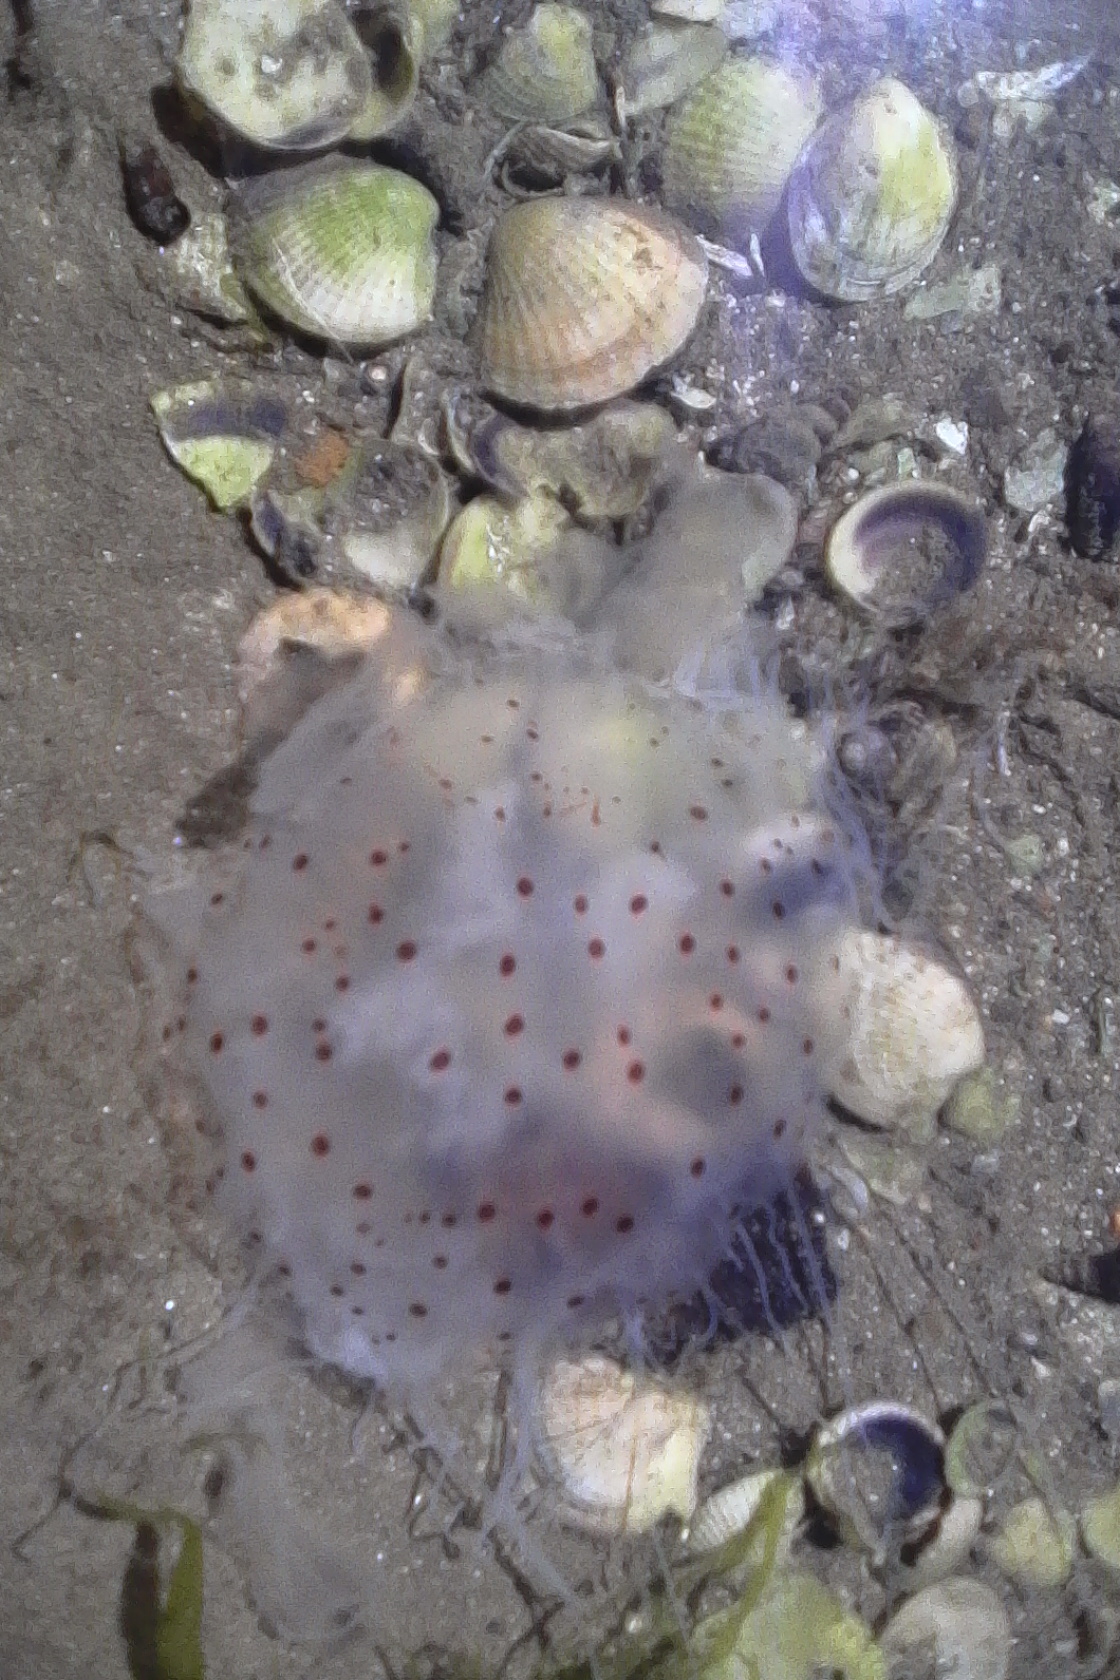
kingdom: Animalia
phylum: Cnidaria
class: Scyphozoa
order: Semaeostomeae
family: Cyaneidae
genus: Desmonema
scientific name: Desmonema gaudichaudi
